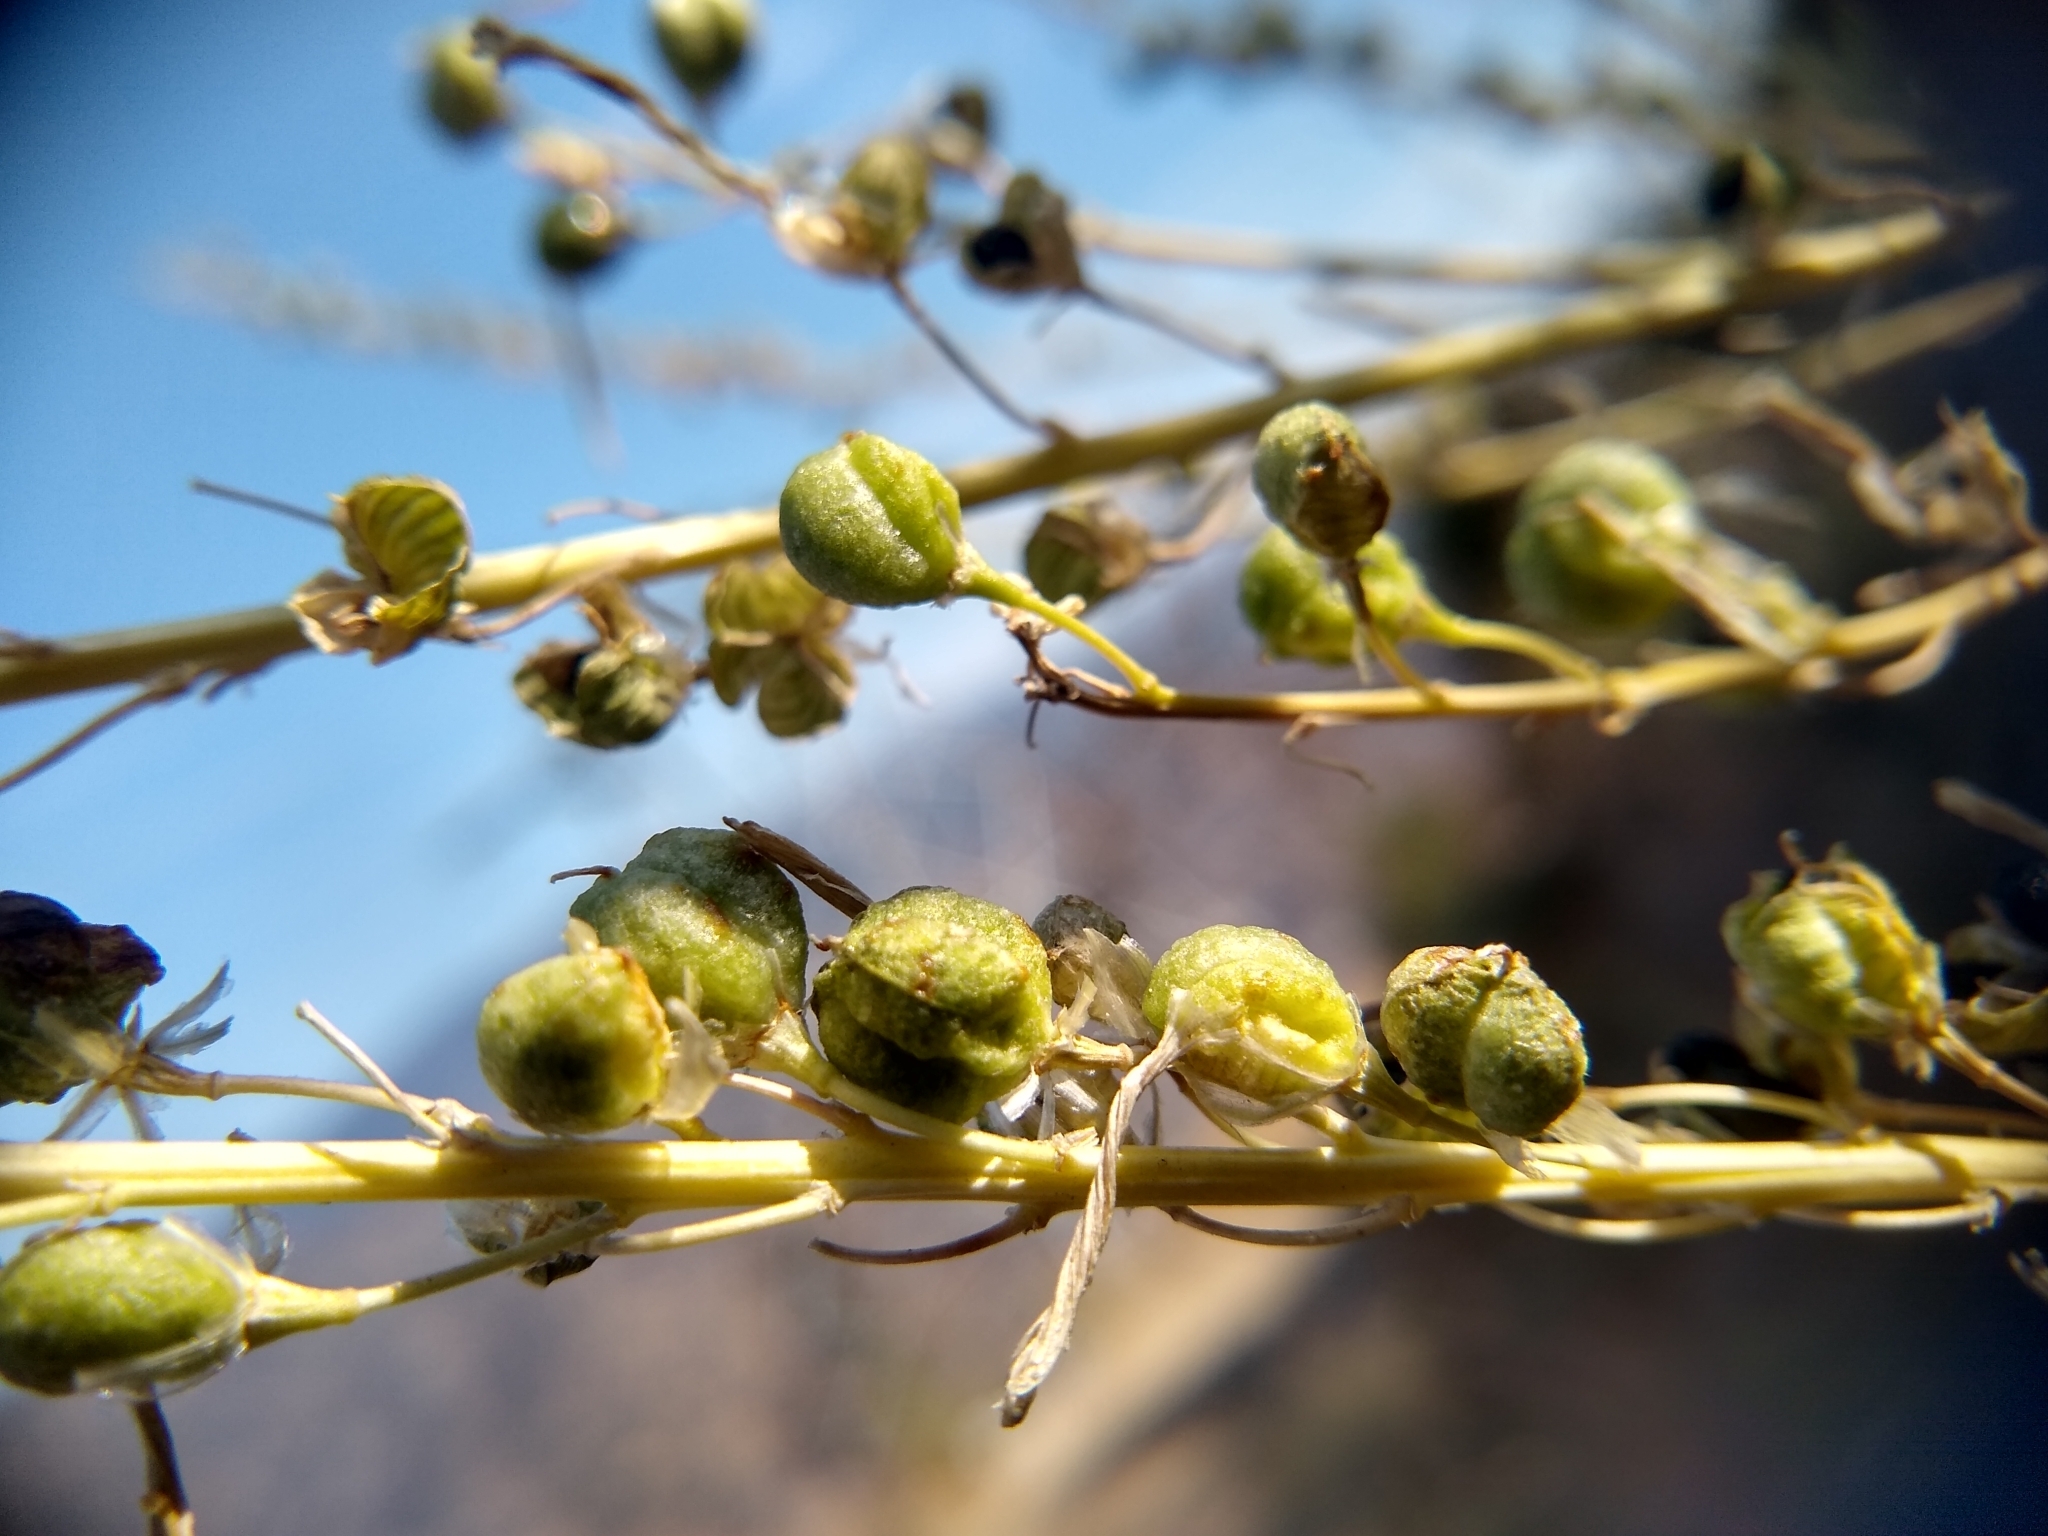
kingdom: Plantae
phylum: Tracheophyta
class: Liliopsida
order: Asparagales
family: Asparagaceae
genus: Chlorogalum
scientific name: Chlorogalum pomeridianum
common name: Amole
